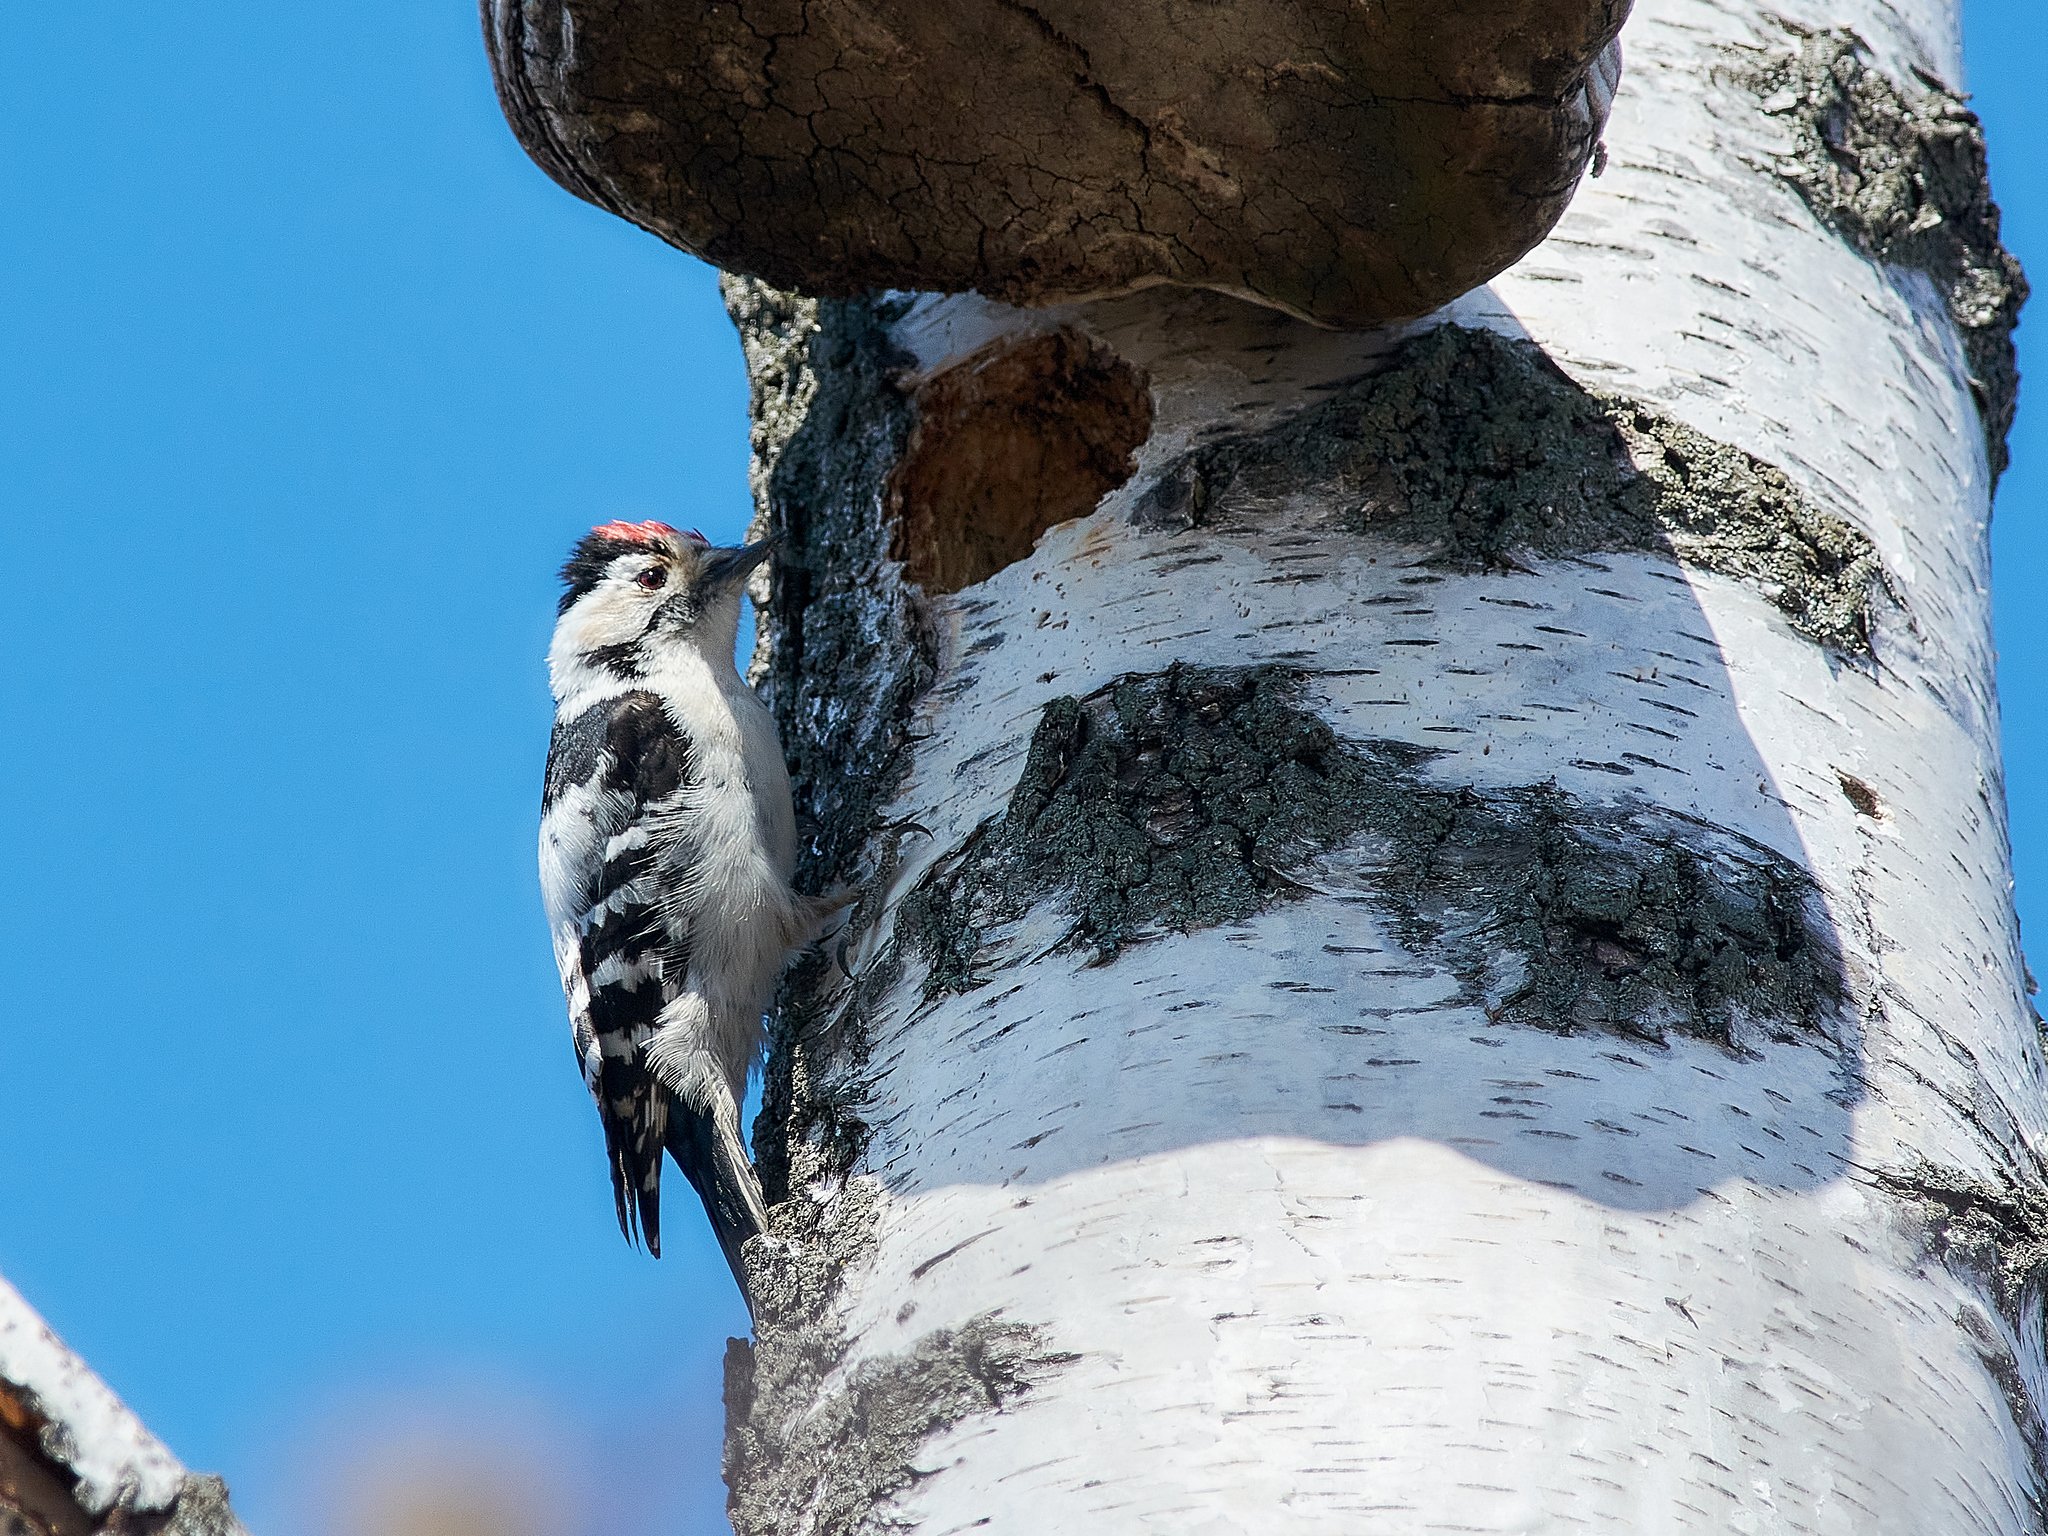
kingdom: Animalia
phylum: Chordata
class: Aves
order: Piciformes
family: Picidae
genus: Dryobates
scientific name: Dryobates minor
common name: Lesser spotted woodpecker
